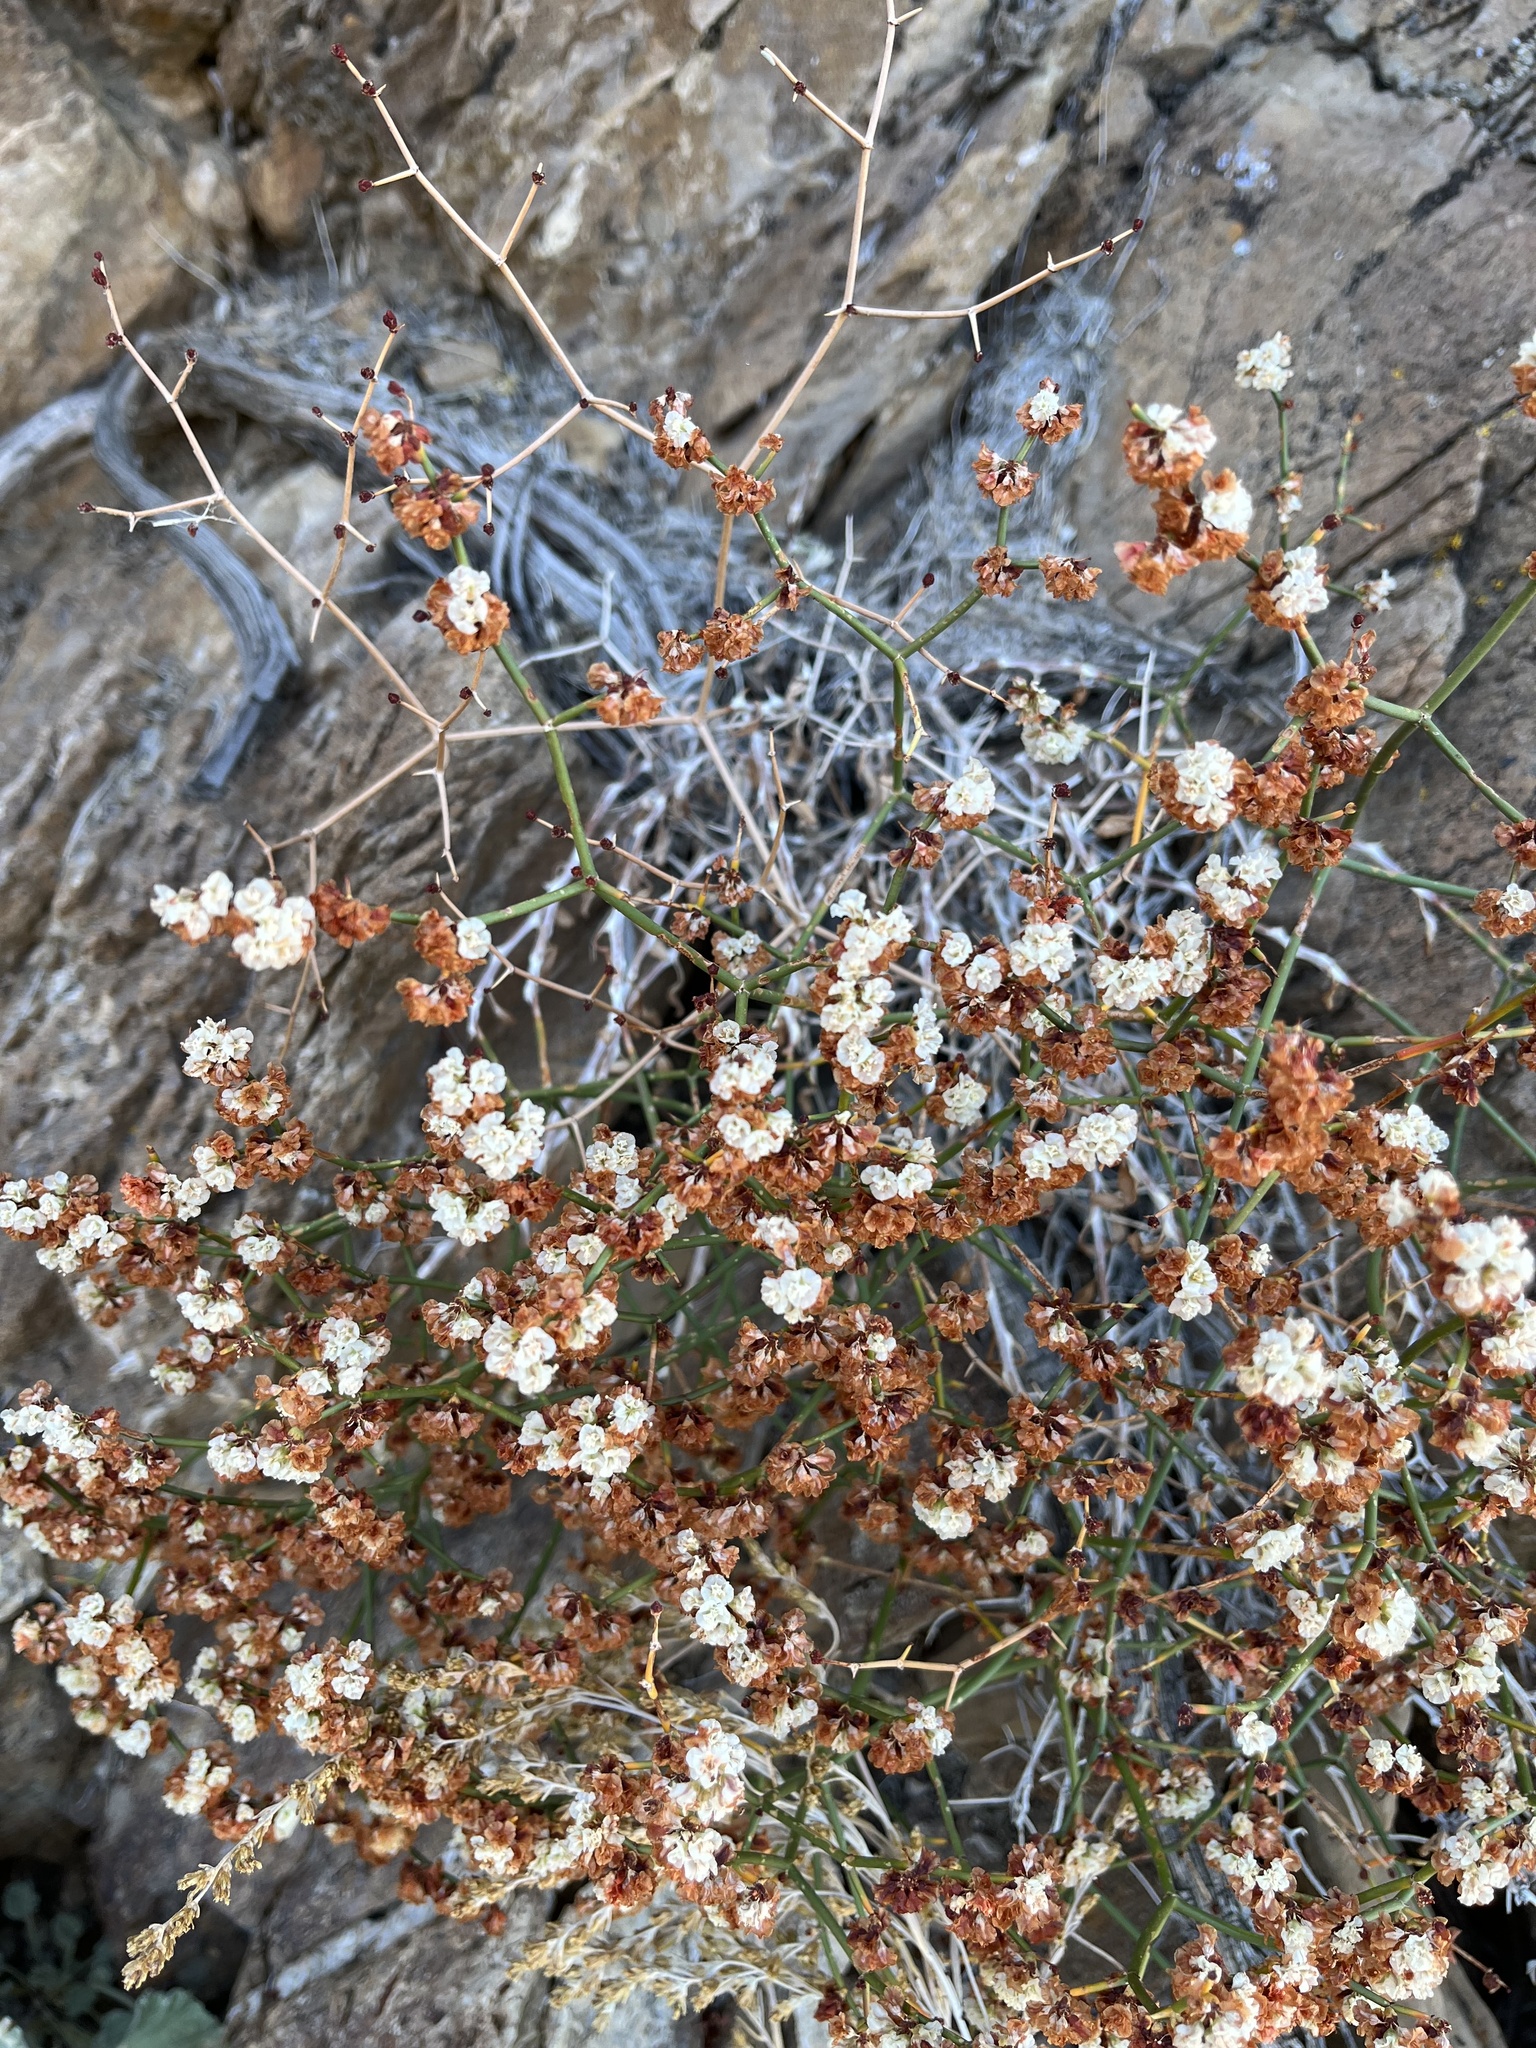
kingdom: Plantae
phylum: Tracheophyta
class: Magnoliopsida
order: Caryophyllales
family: Polygonaceae
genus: Eriogonum
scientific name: Eriogonum heermannii
